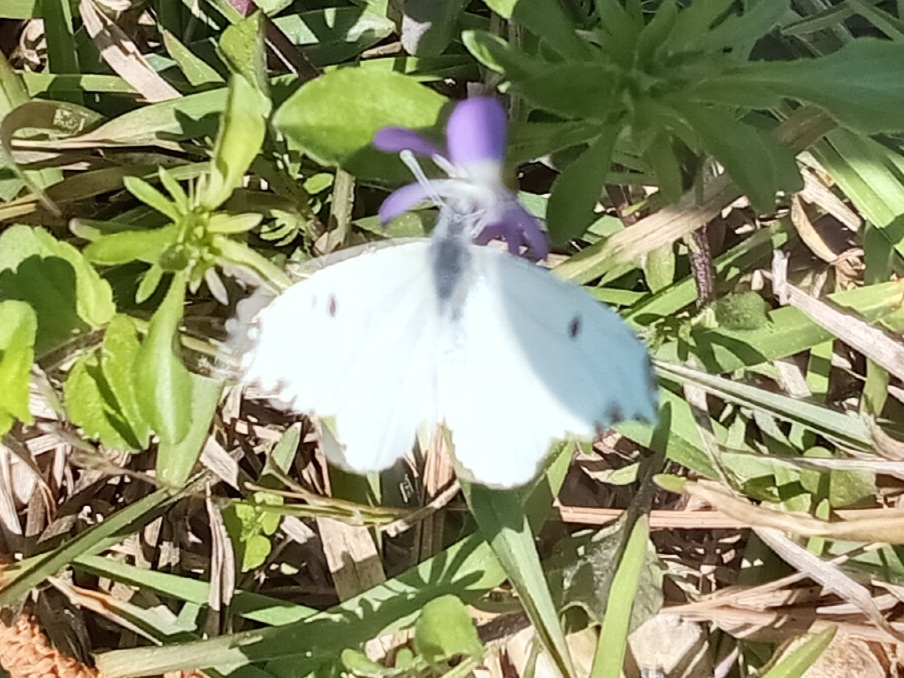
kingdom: Animalia
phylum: Arthropoda
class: Insecta
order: Lepidoptera
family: Pieridae
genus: Anthocharis
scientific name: Anthocharis midea
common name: Falcate orangetip
